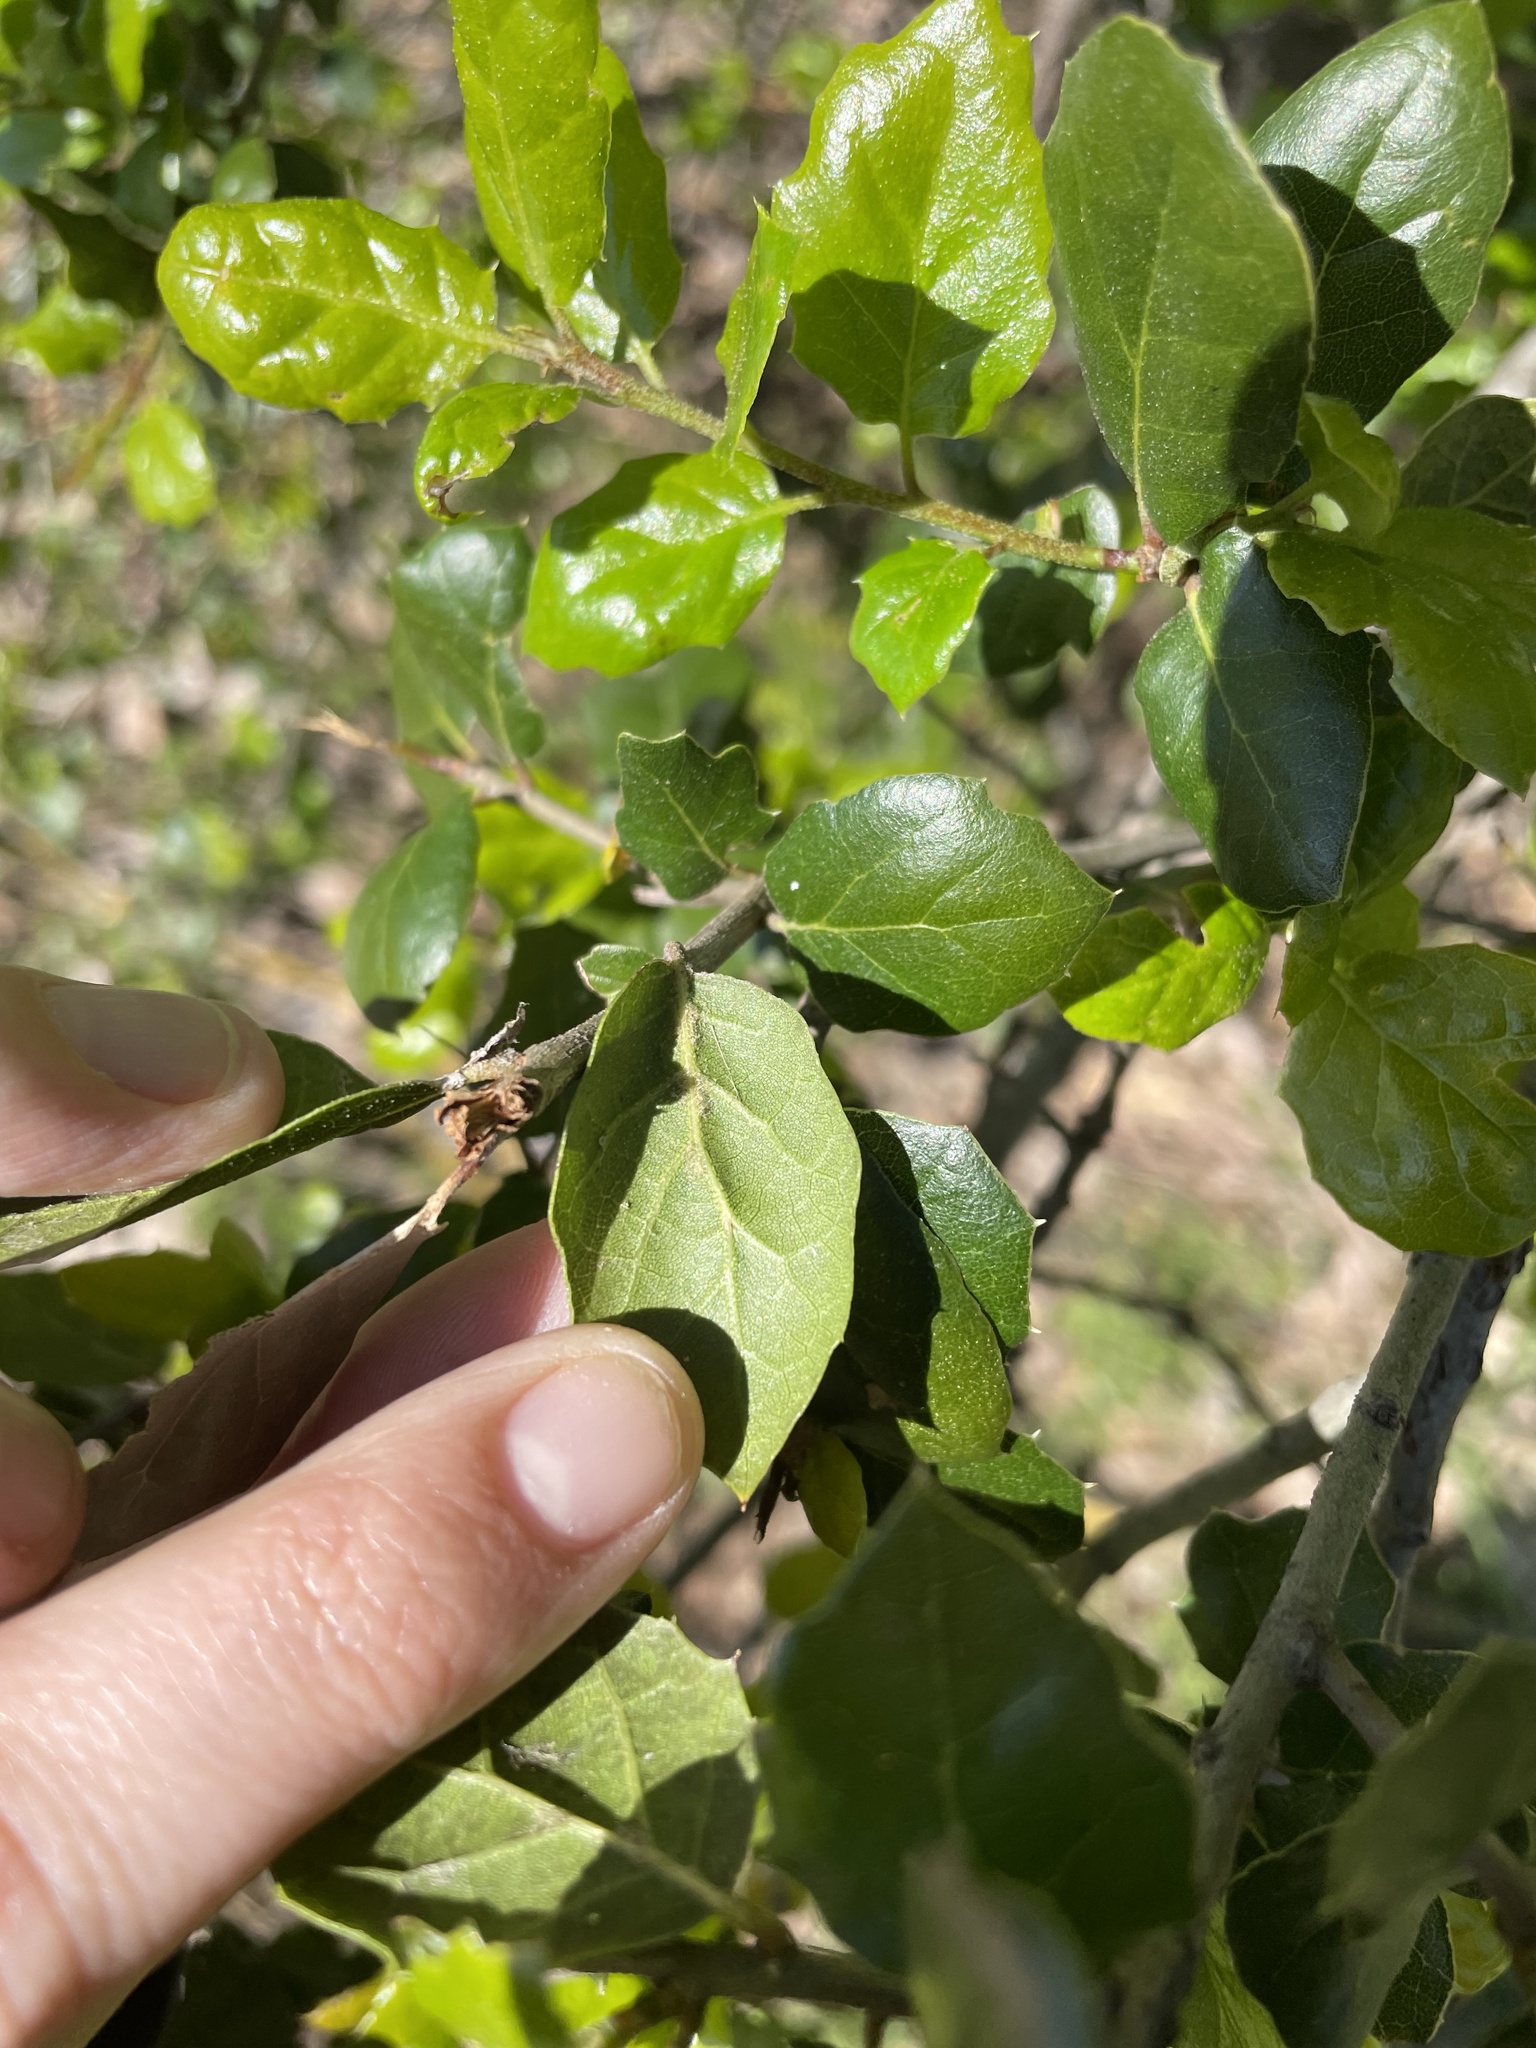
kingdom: Plantae
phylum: Tracheophyta
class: Magnoliopsida
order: Fagales
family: Fagaceae
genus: Quercus
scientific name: Quercus agrifolia
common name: California live oak
